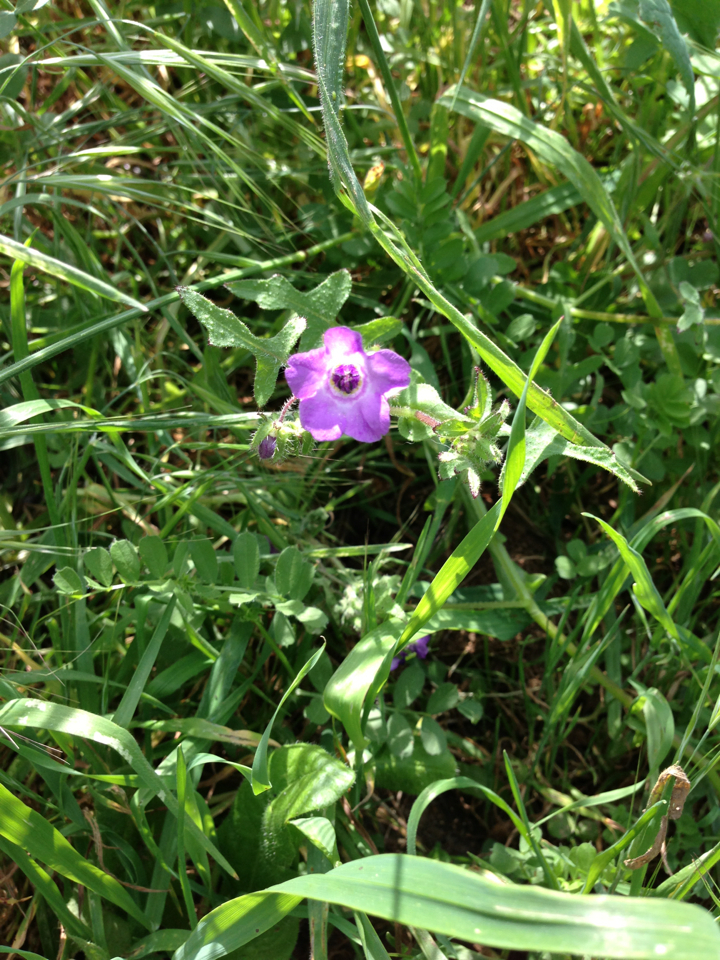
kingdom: Plantae
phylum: Tracheophyta
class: Magnoliopsida
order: Boraginales
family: Hydrophyllaceae
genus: Pholistoma
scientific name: Pholistoma auritum
